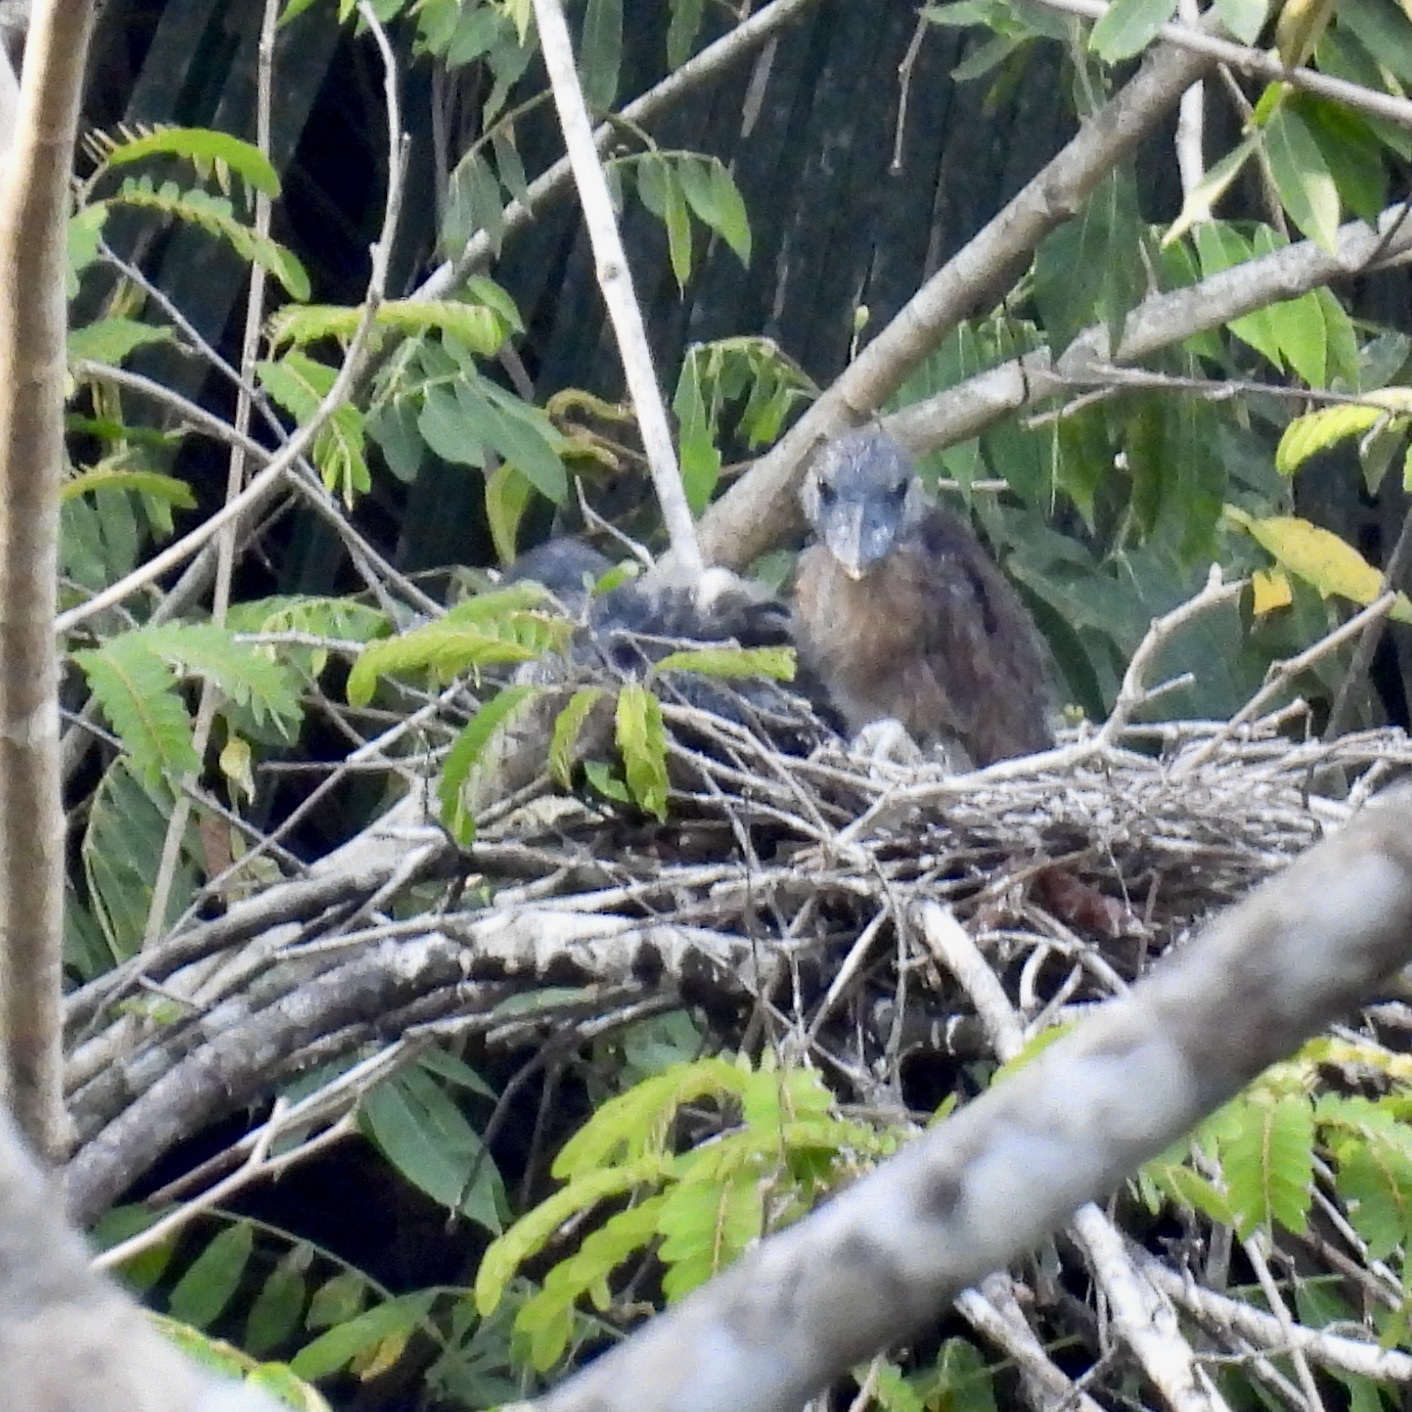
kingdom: Animalia
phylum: Chordata
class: Aves
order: Pelecaniformes
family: Ardeidae
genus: Cochlearius
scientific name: Cochlearius cochlearius
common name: Boat-billed heron
